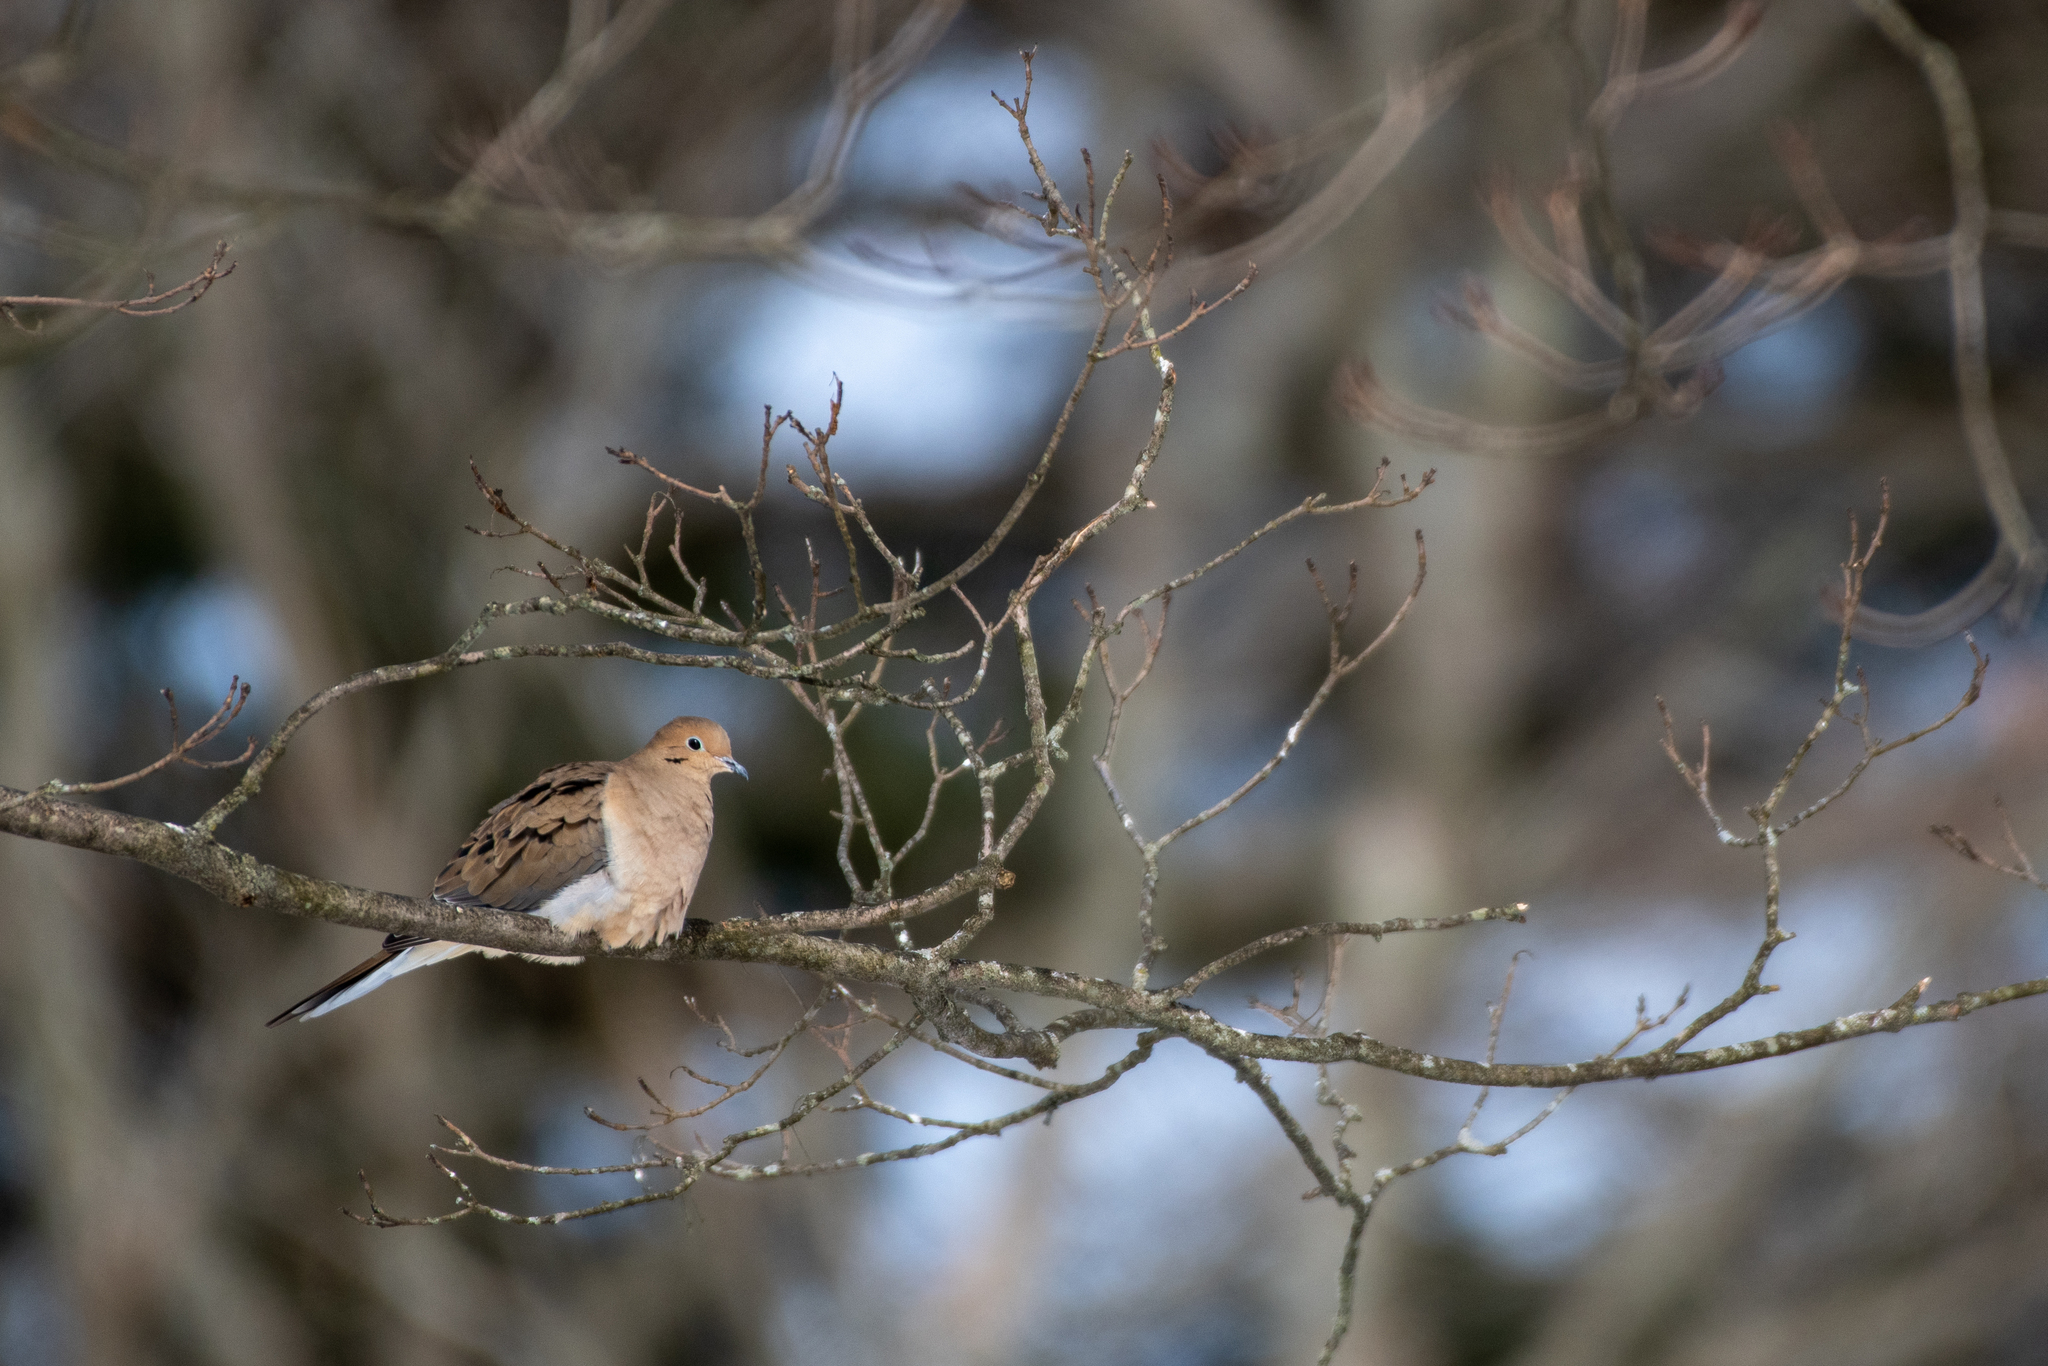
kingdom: Animalia
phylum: Chordata
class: Aves
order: Columbiformes
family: Columbidae
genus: Zenaida
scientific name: Zenaida macroura
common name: Mourning dove
